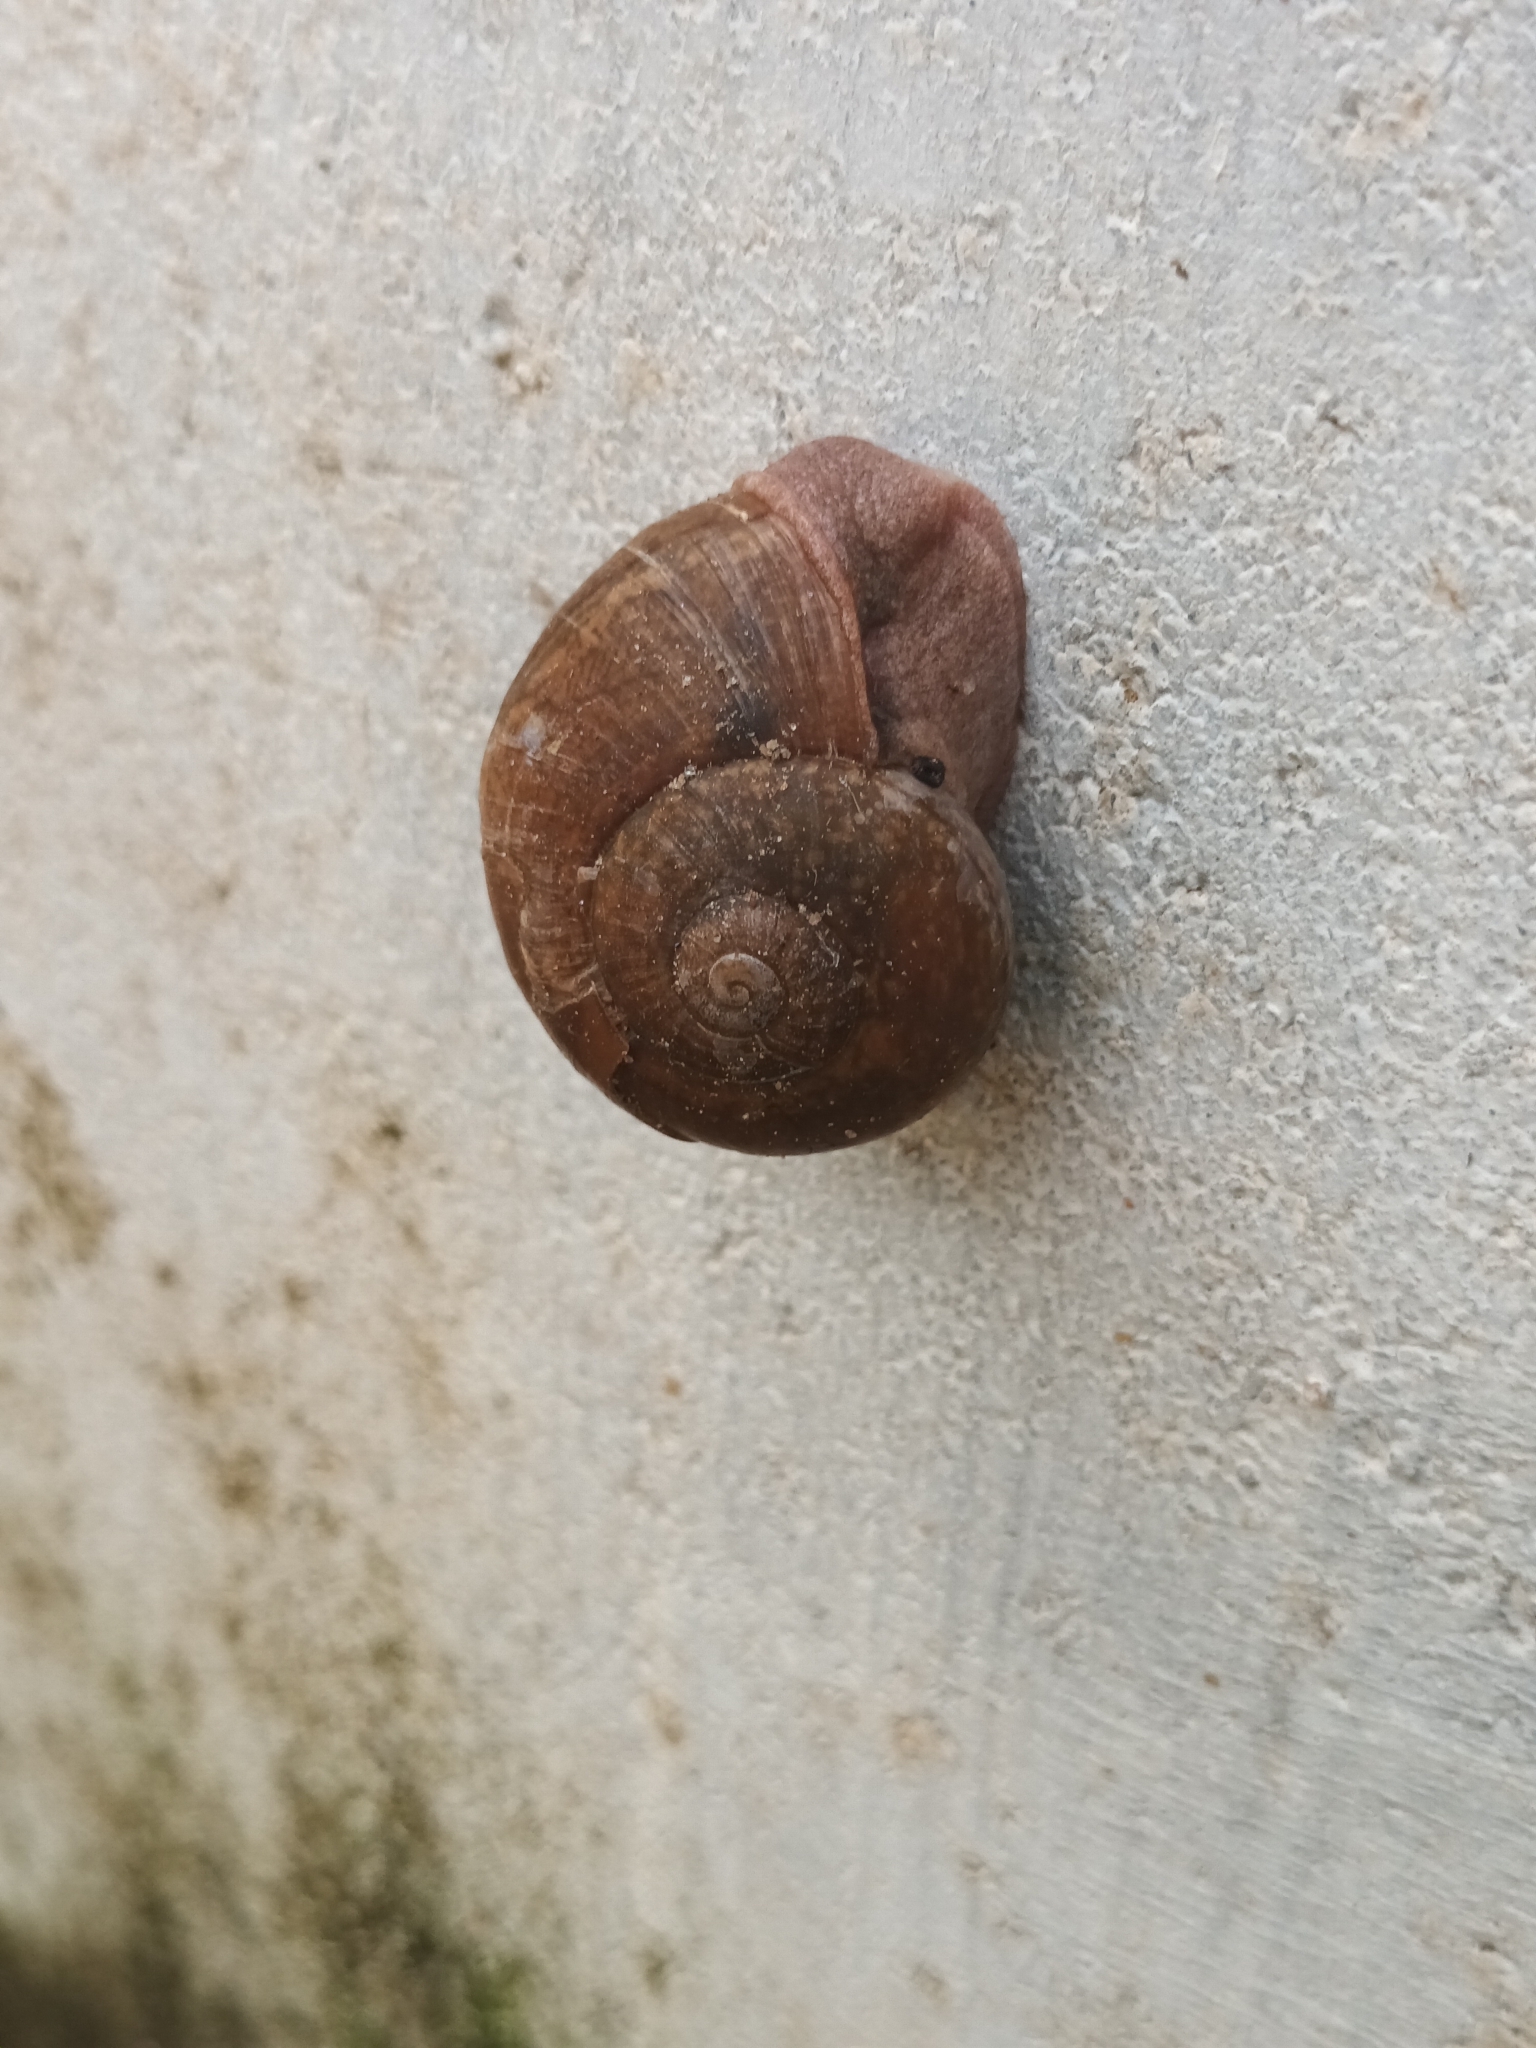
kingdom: Animalia
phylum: Mollusca
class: Gastropoda
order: Stylommatophora
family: Ariophantidae
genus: Ariophanta
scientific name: Ariophanta exilis
